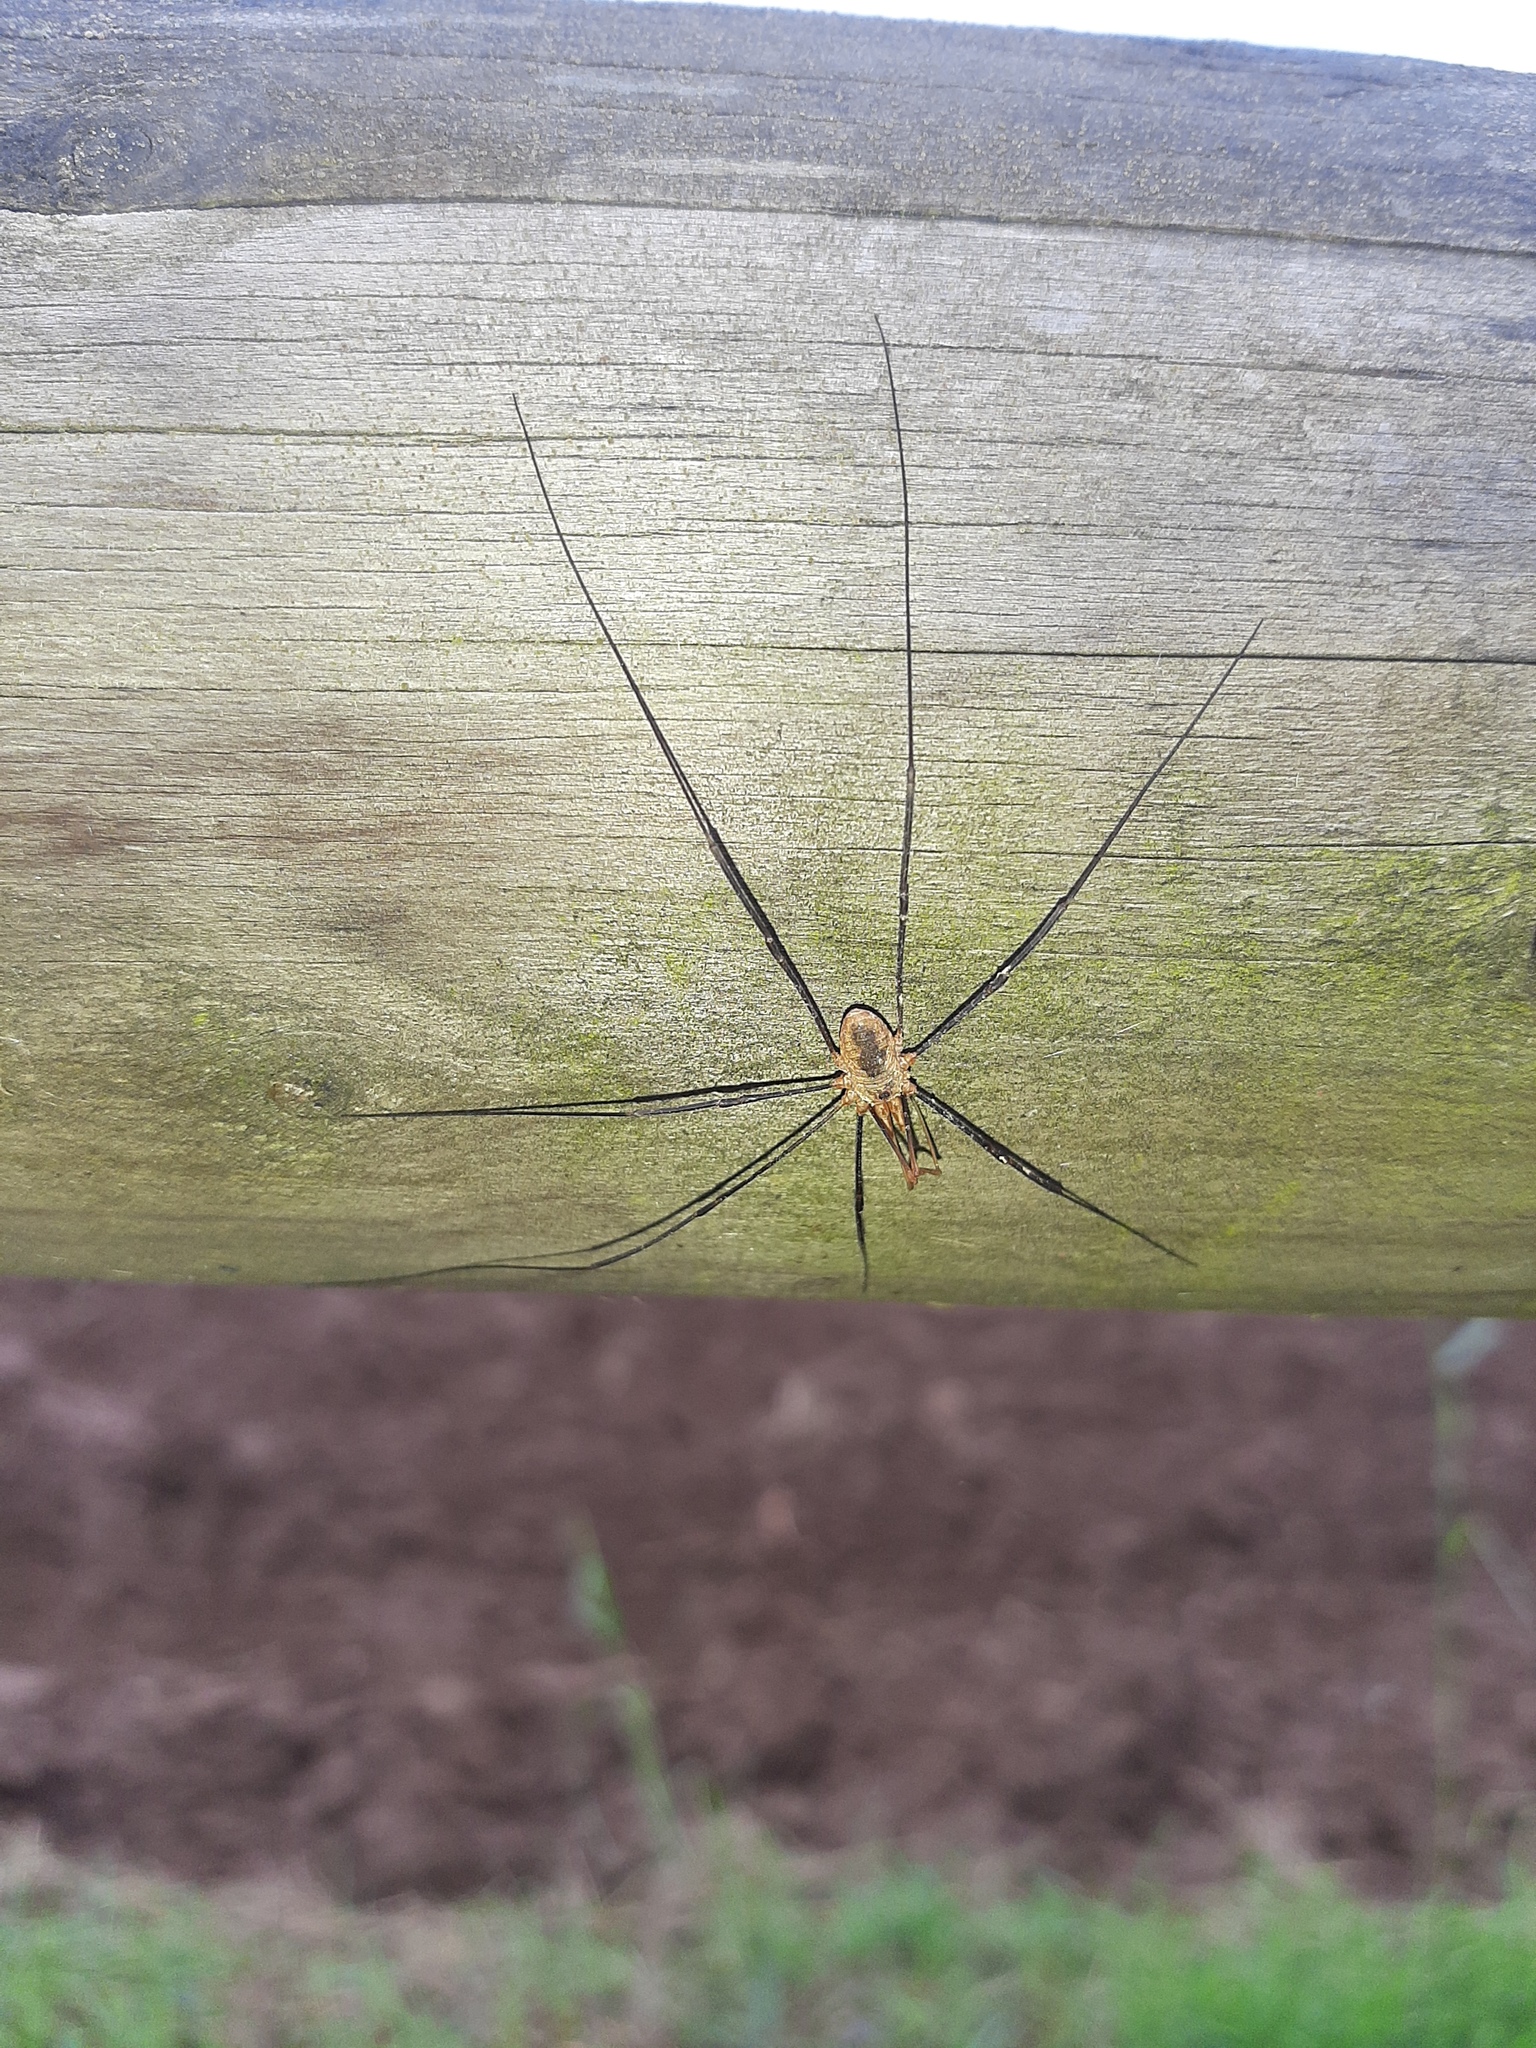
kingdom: Animalia
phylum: Arthropoda
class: Arachnida
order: Opiliones
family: Phalangiidae
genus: Phalangium
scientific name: Phalangium opilio
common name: Daddy longleg
